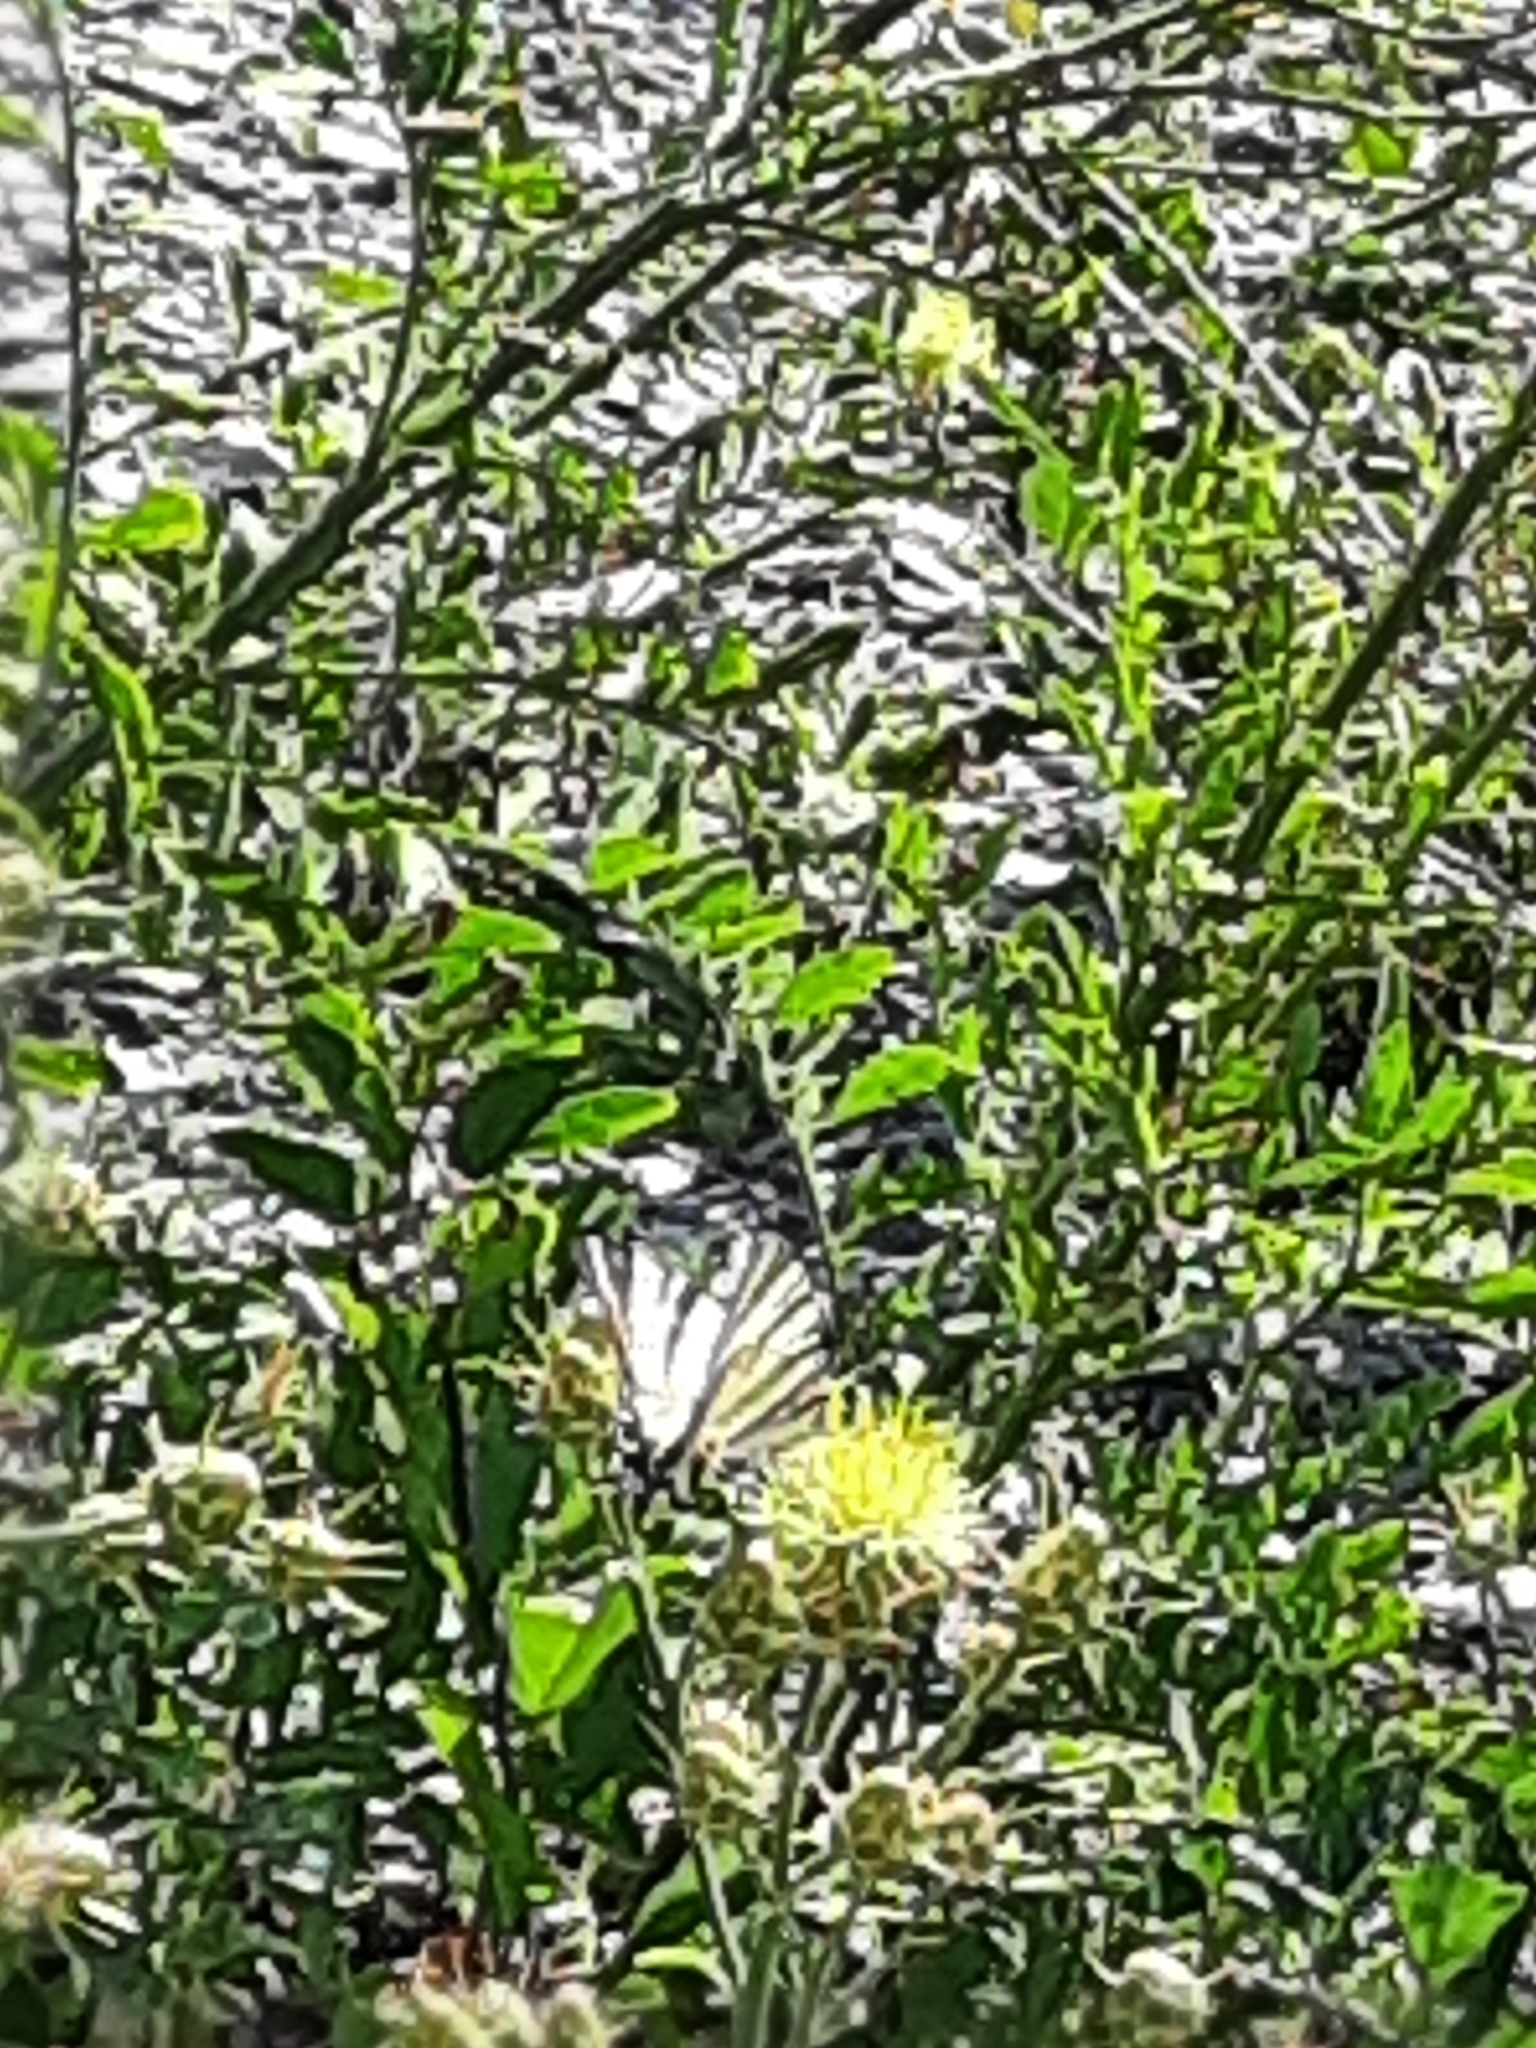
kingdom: Animalia
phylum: Arthropoda
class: Insecta
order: Lepidoptera
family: Papilionidae
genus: Iphiclides
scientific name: Iphiclides podalirius
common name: Scarce swallowtail
